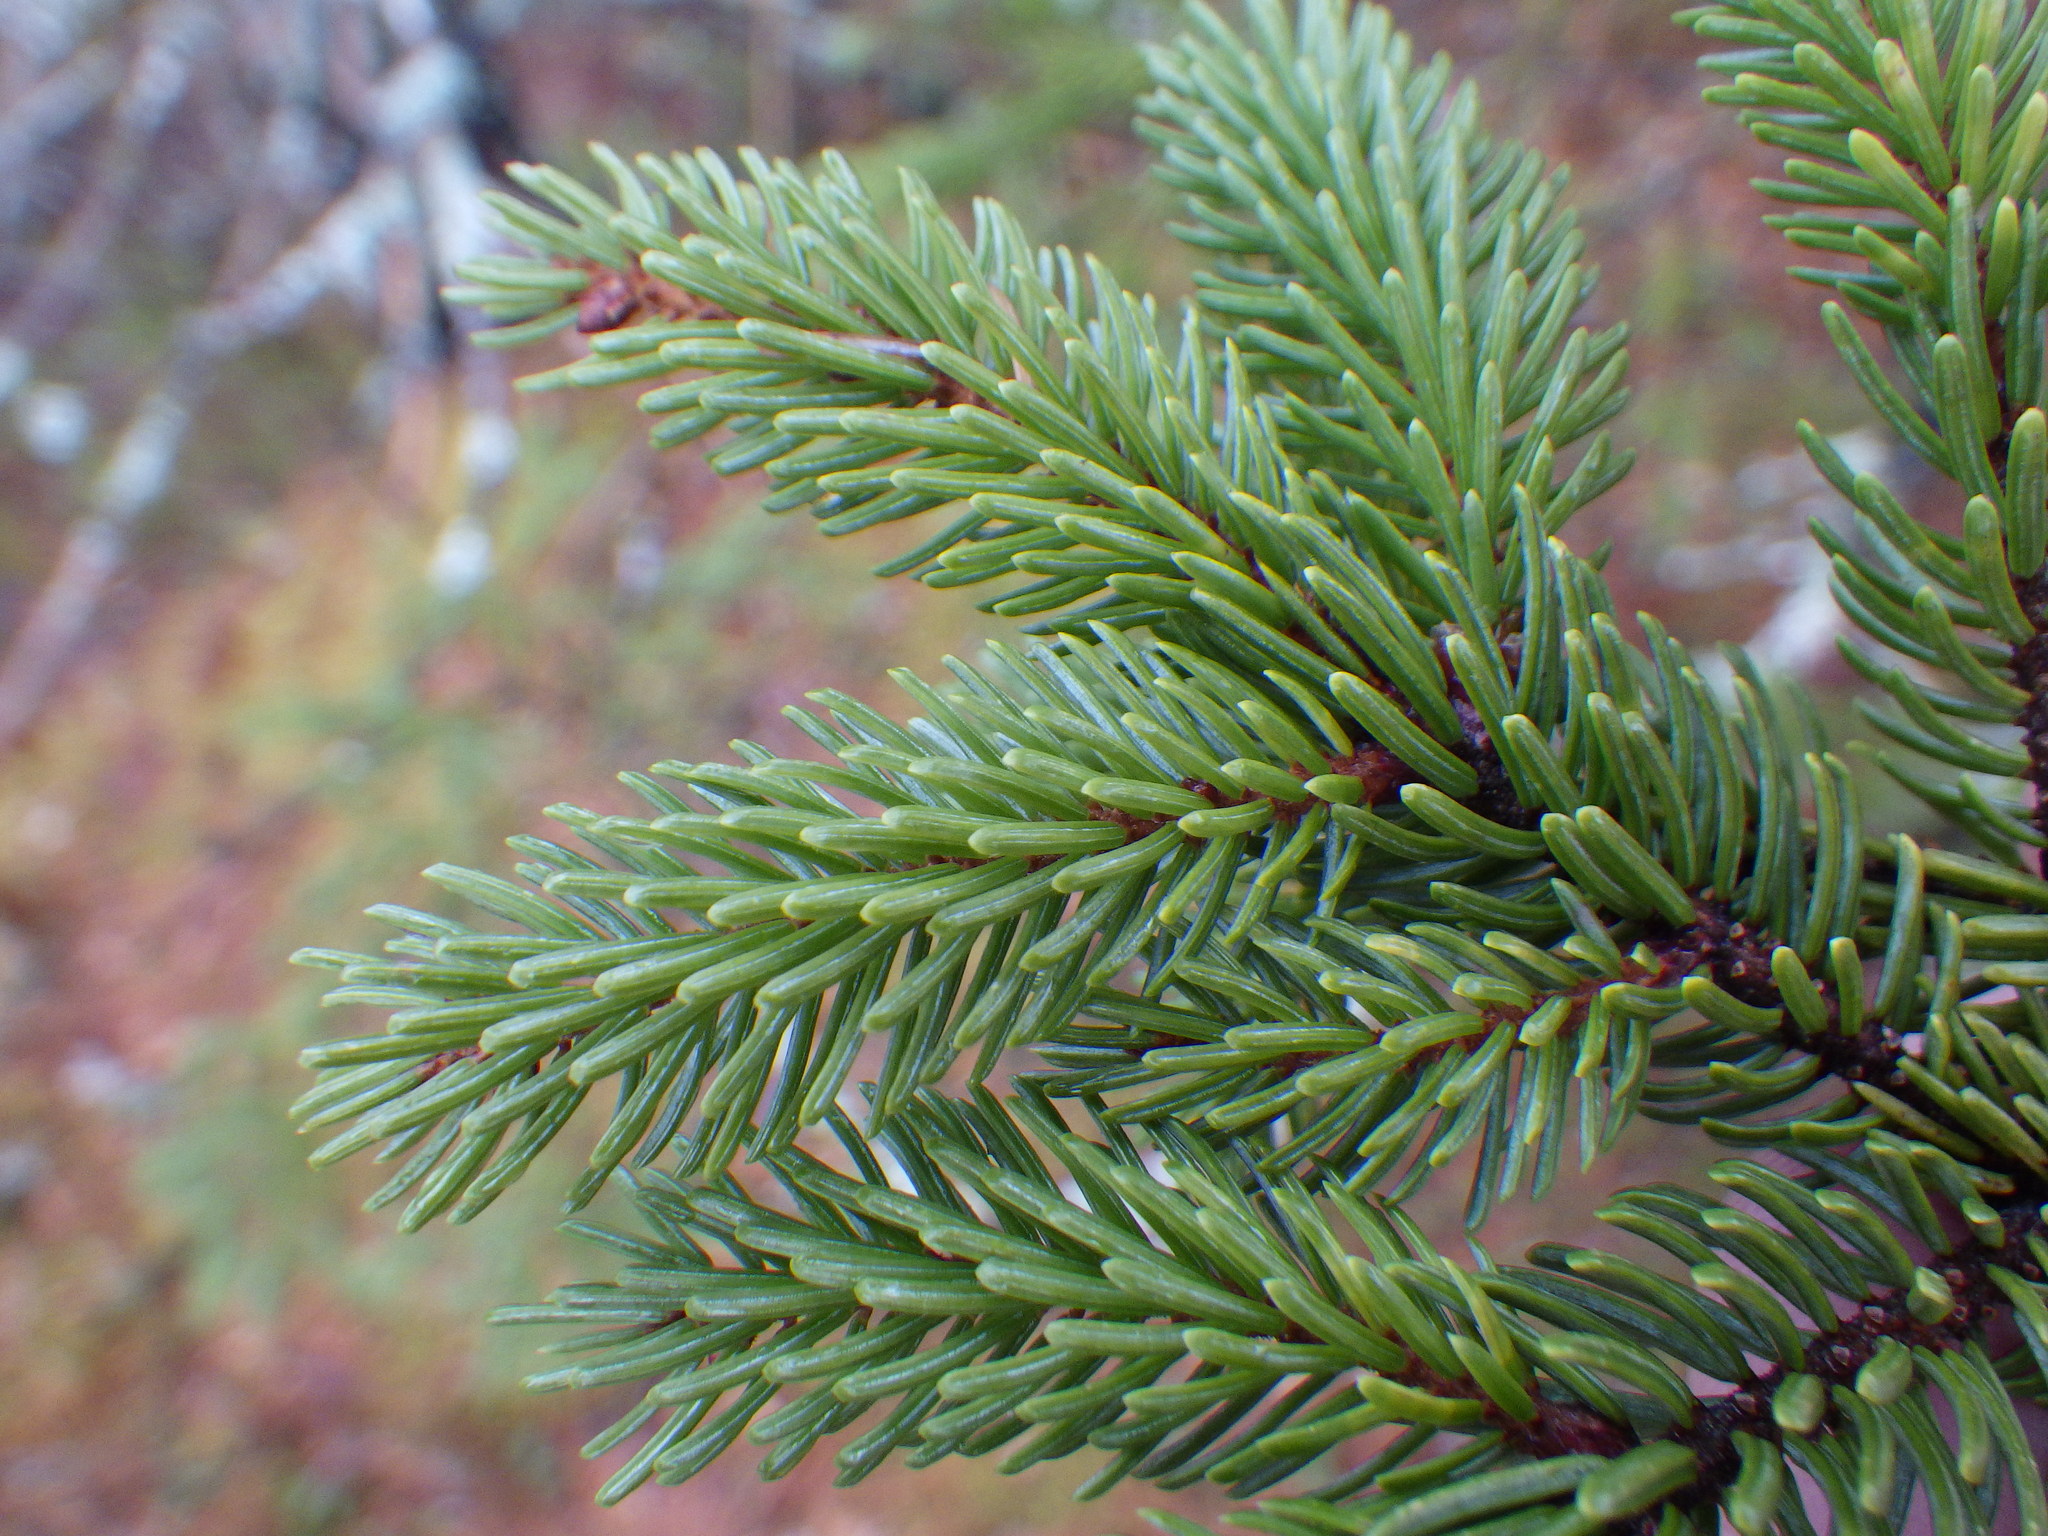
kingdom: Plantae
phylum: Tracheophyta
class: Pinopsida
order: Pinales
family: Pinaceae
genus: Picea
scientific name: Picea mariana
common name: Black spruce
